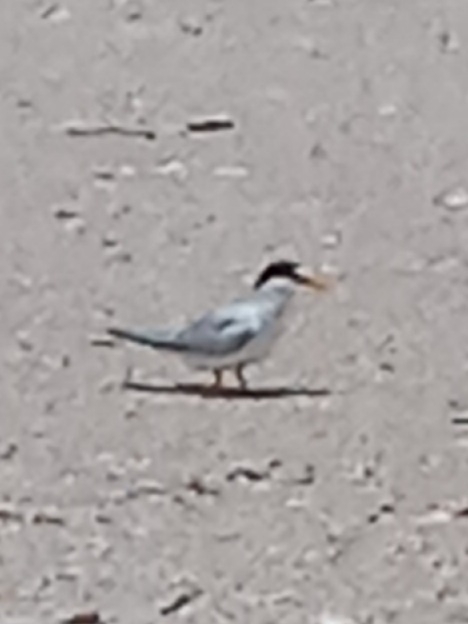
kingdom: Animalia
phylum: Chordata
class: Aves
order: Charadriiformes
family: Laridae
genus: Sternula
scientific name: Sternula antillarum
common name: Least tern
